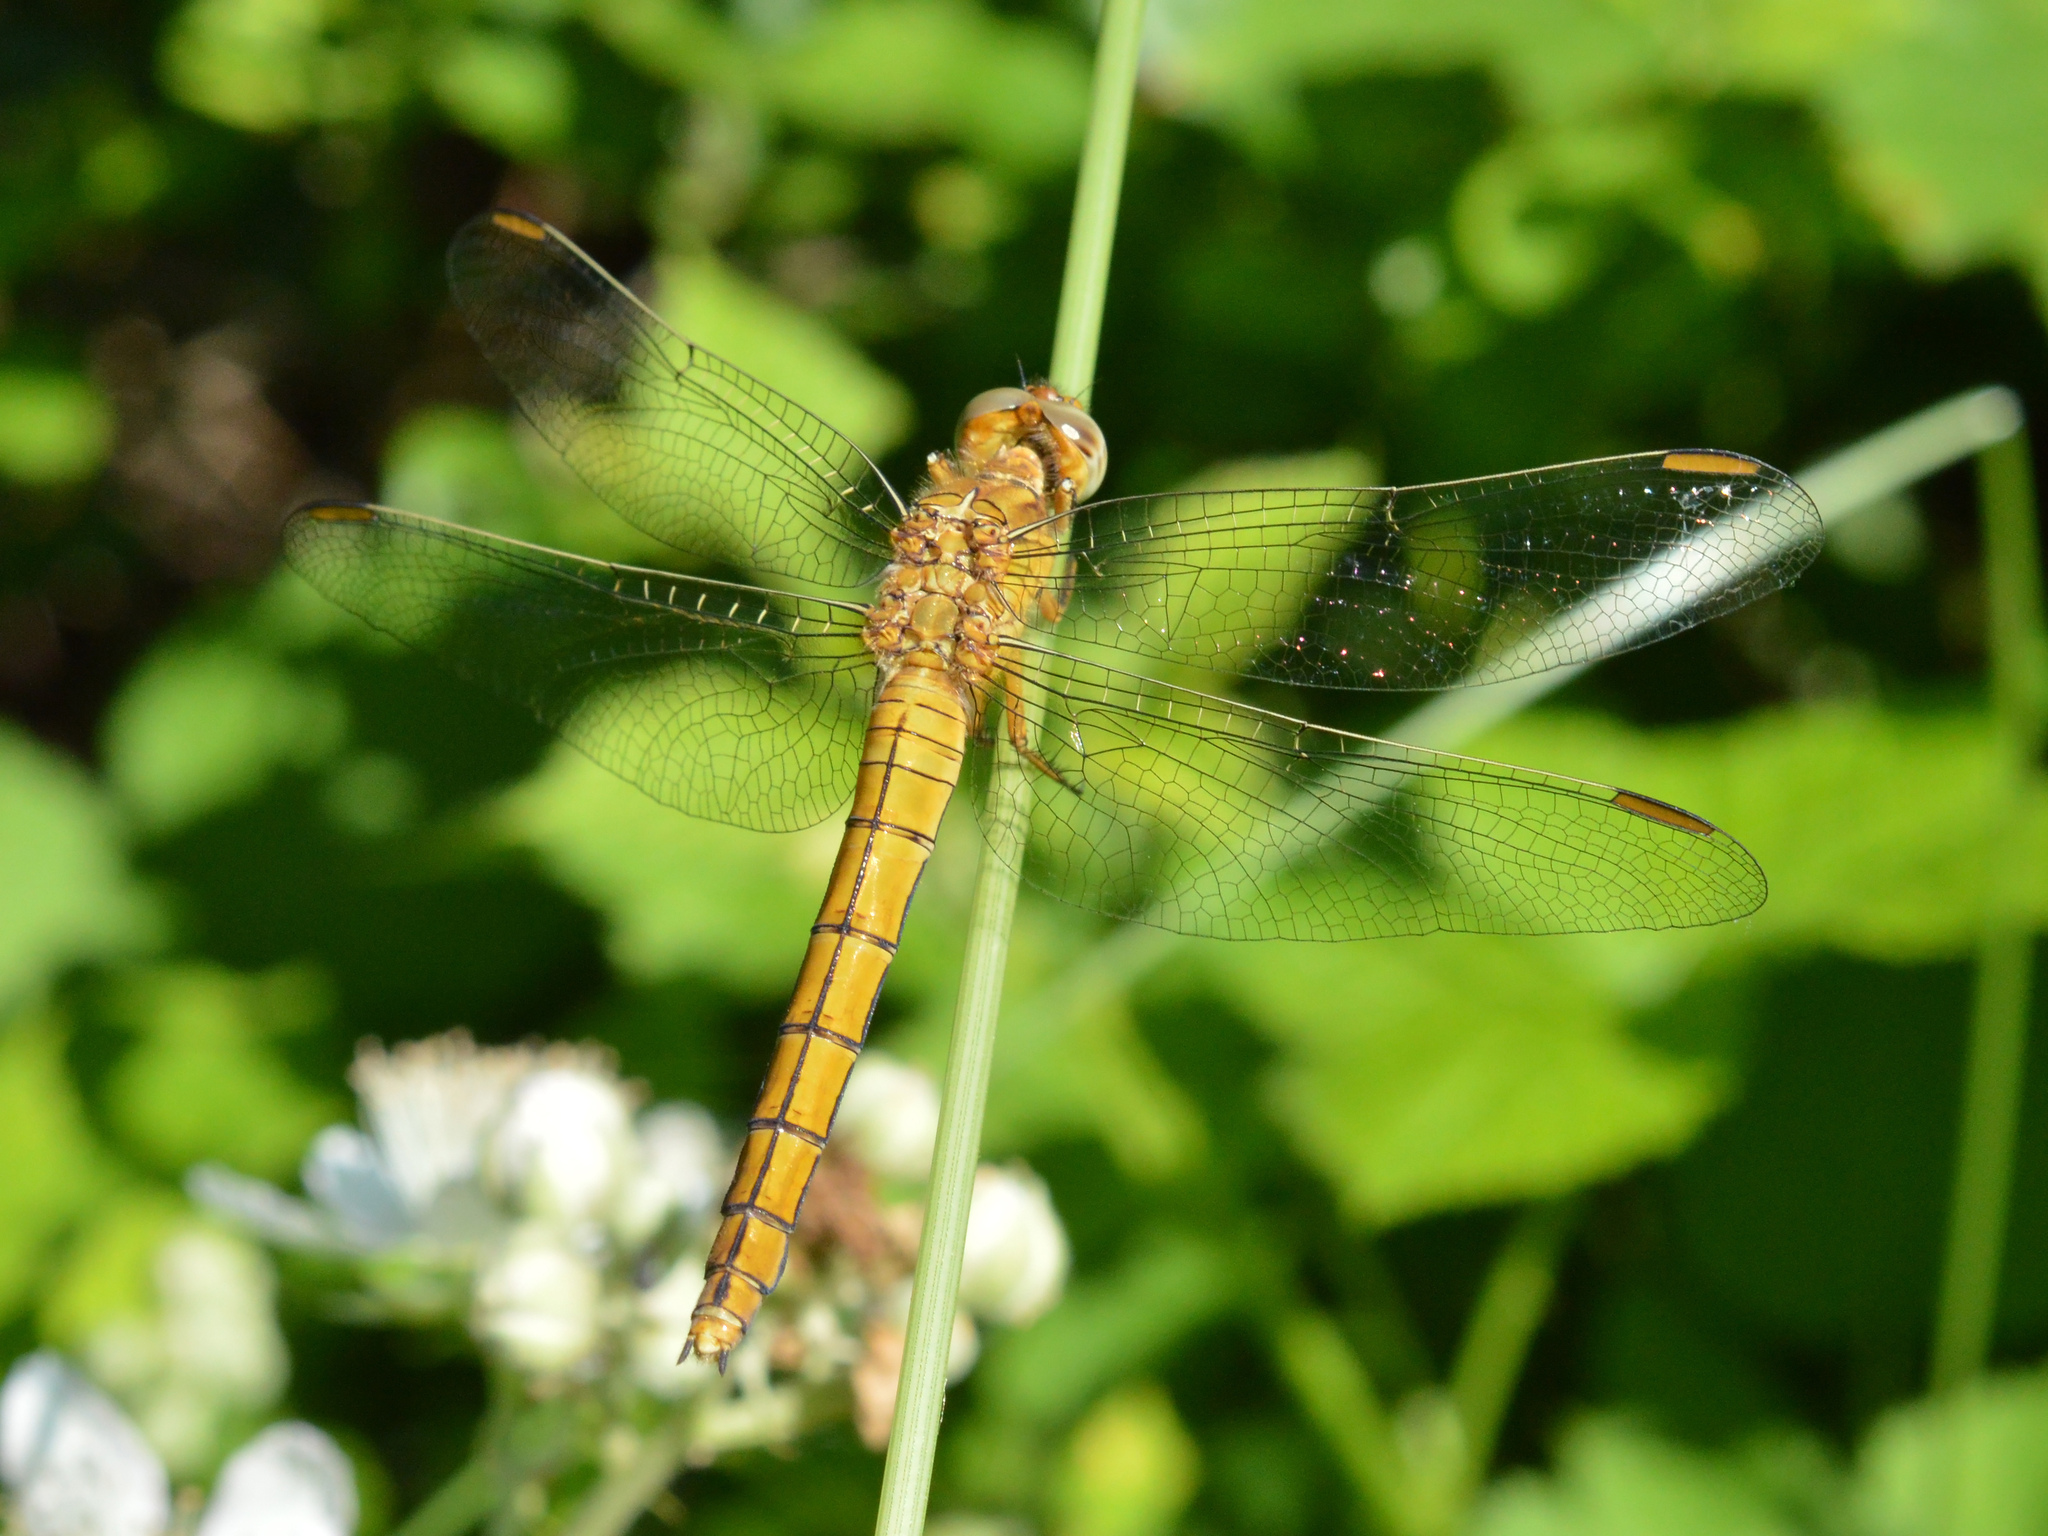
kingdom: Animalia
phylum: Arthropoda
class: Insecta
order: Odonata
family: Libellulidae
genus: Orthetrum
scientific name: Orthetrum coerulescens
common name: Keeled skimmer
